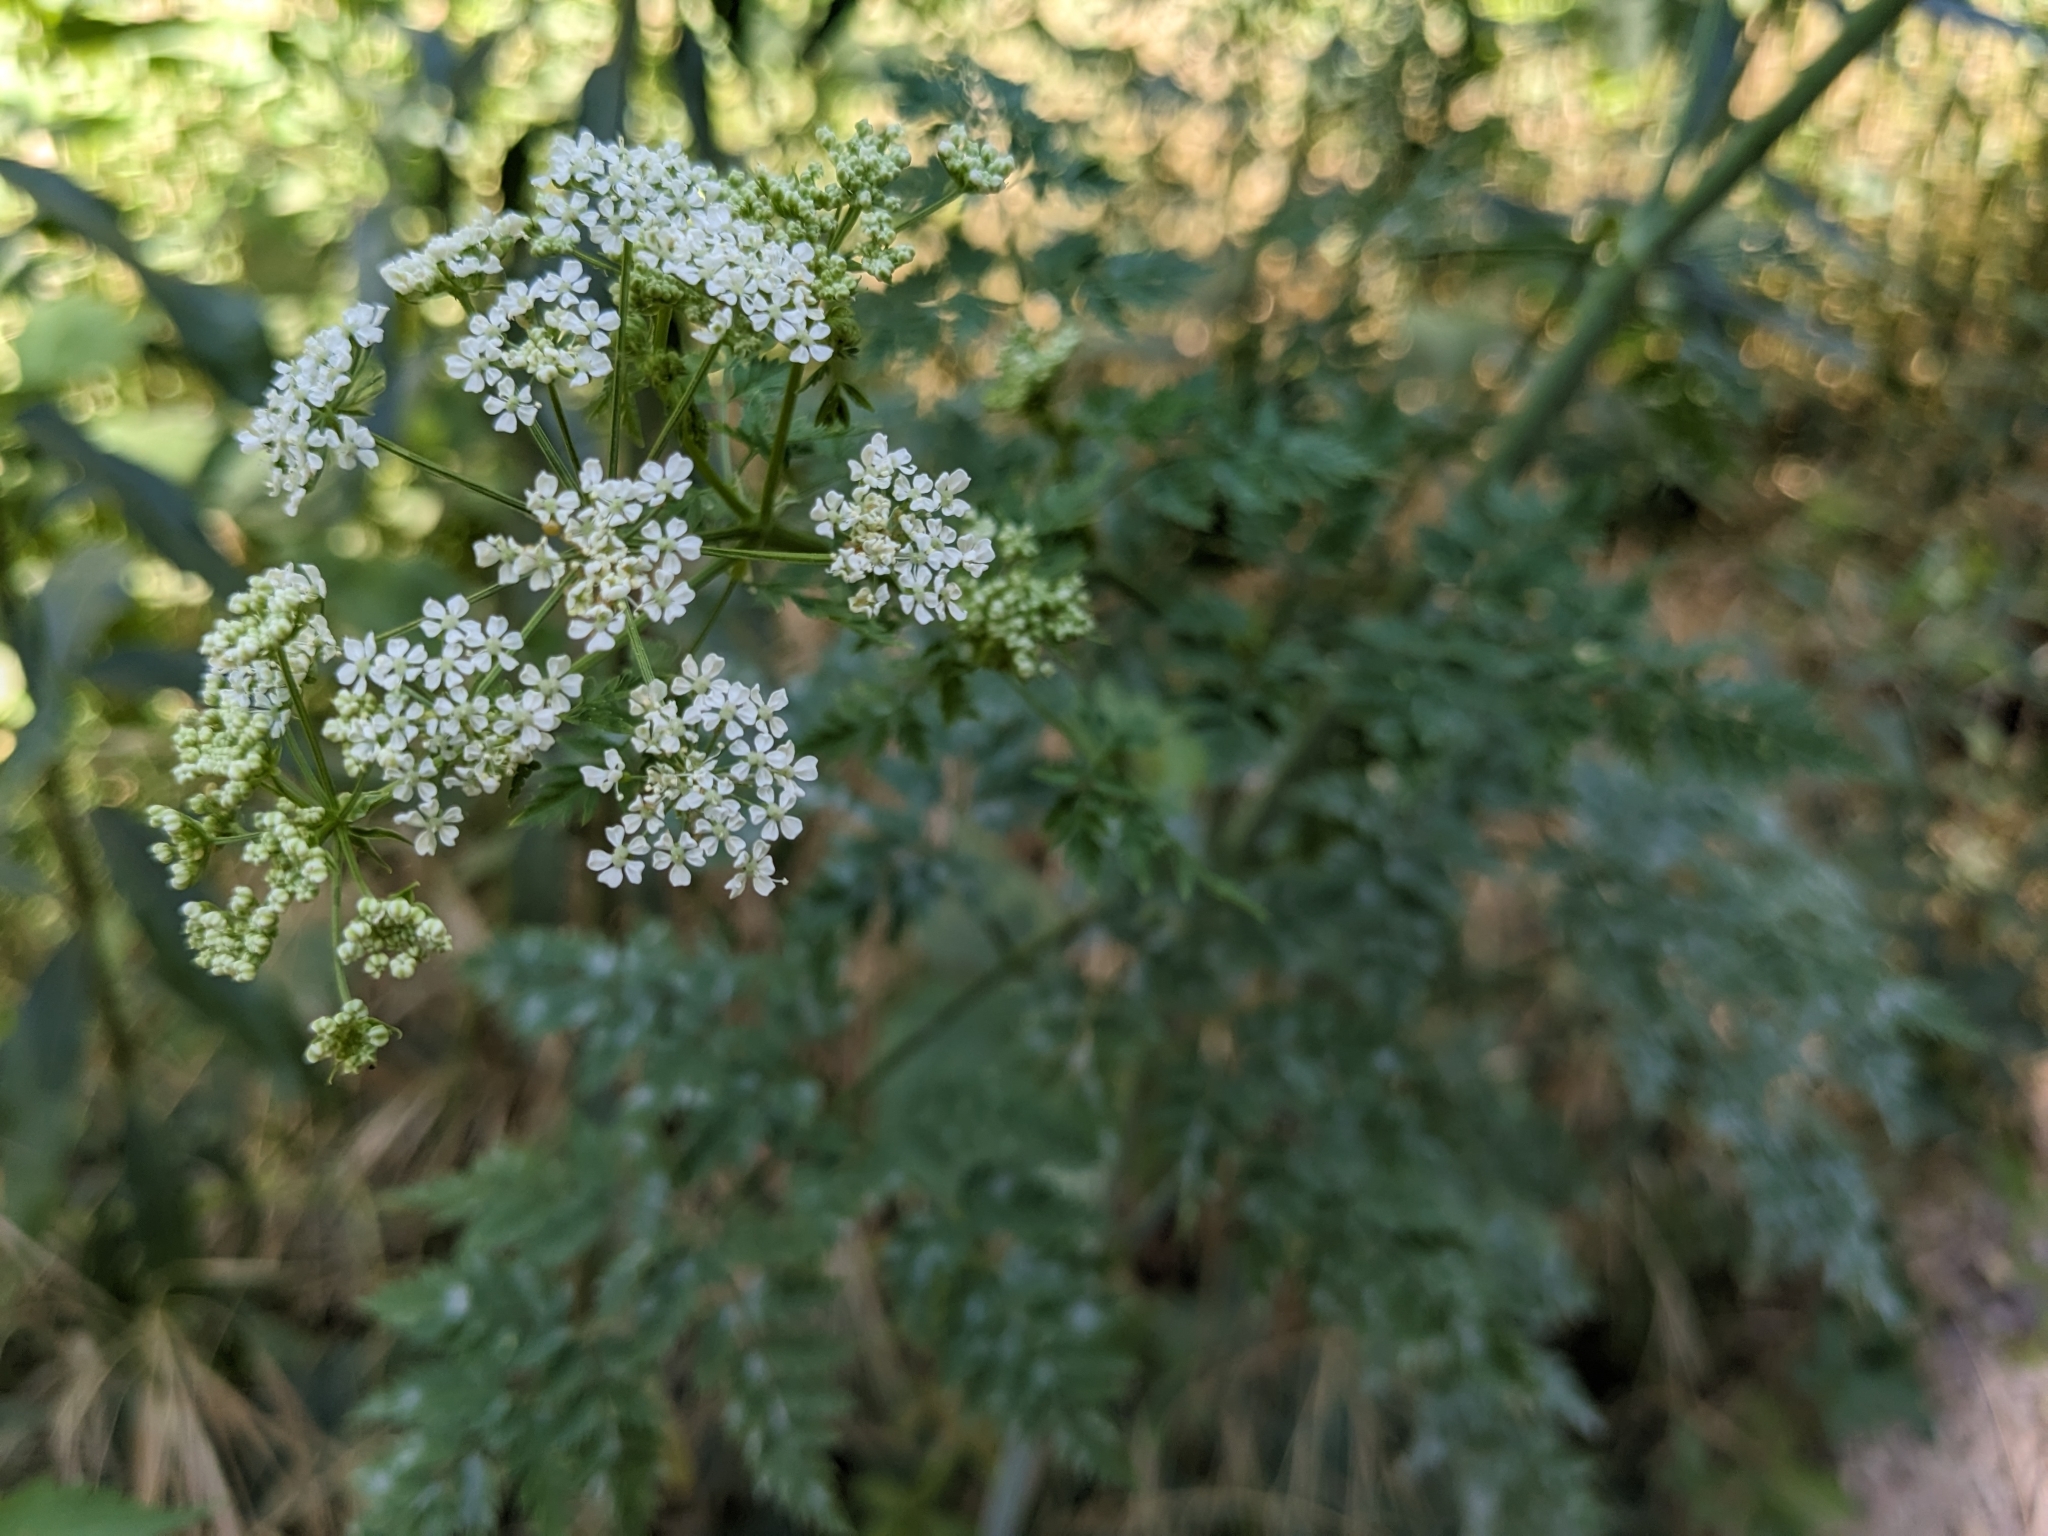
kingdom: Plantae
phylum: Tracheophyta
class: Magnoliopsida
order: Apiales
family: Apiaceae
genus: Conium
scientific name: Conium maculatum
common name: Hemlock
